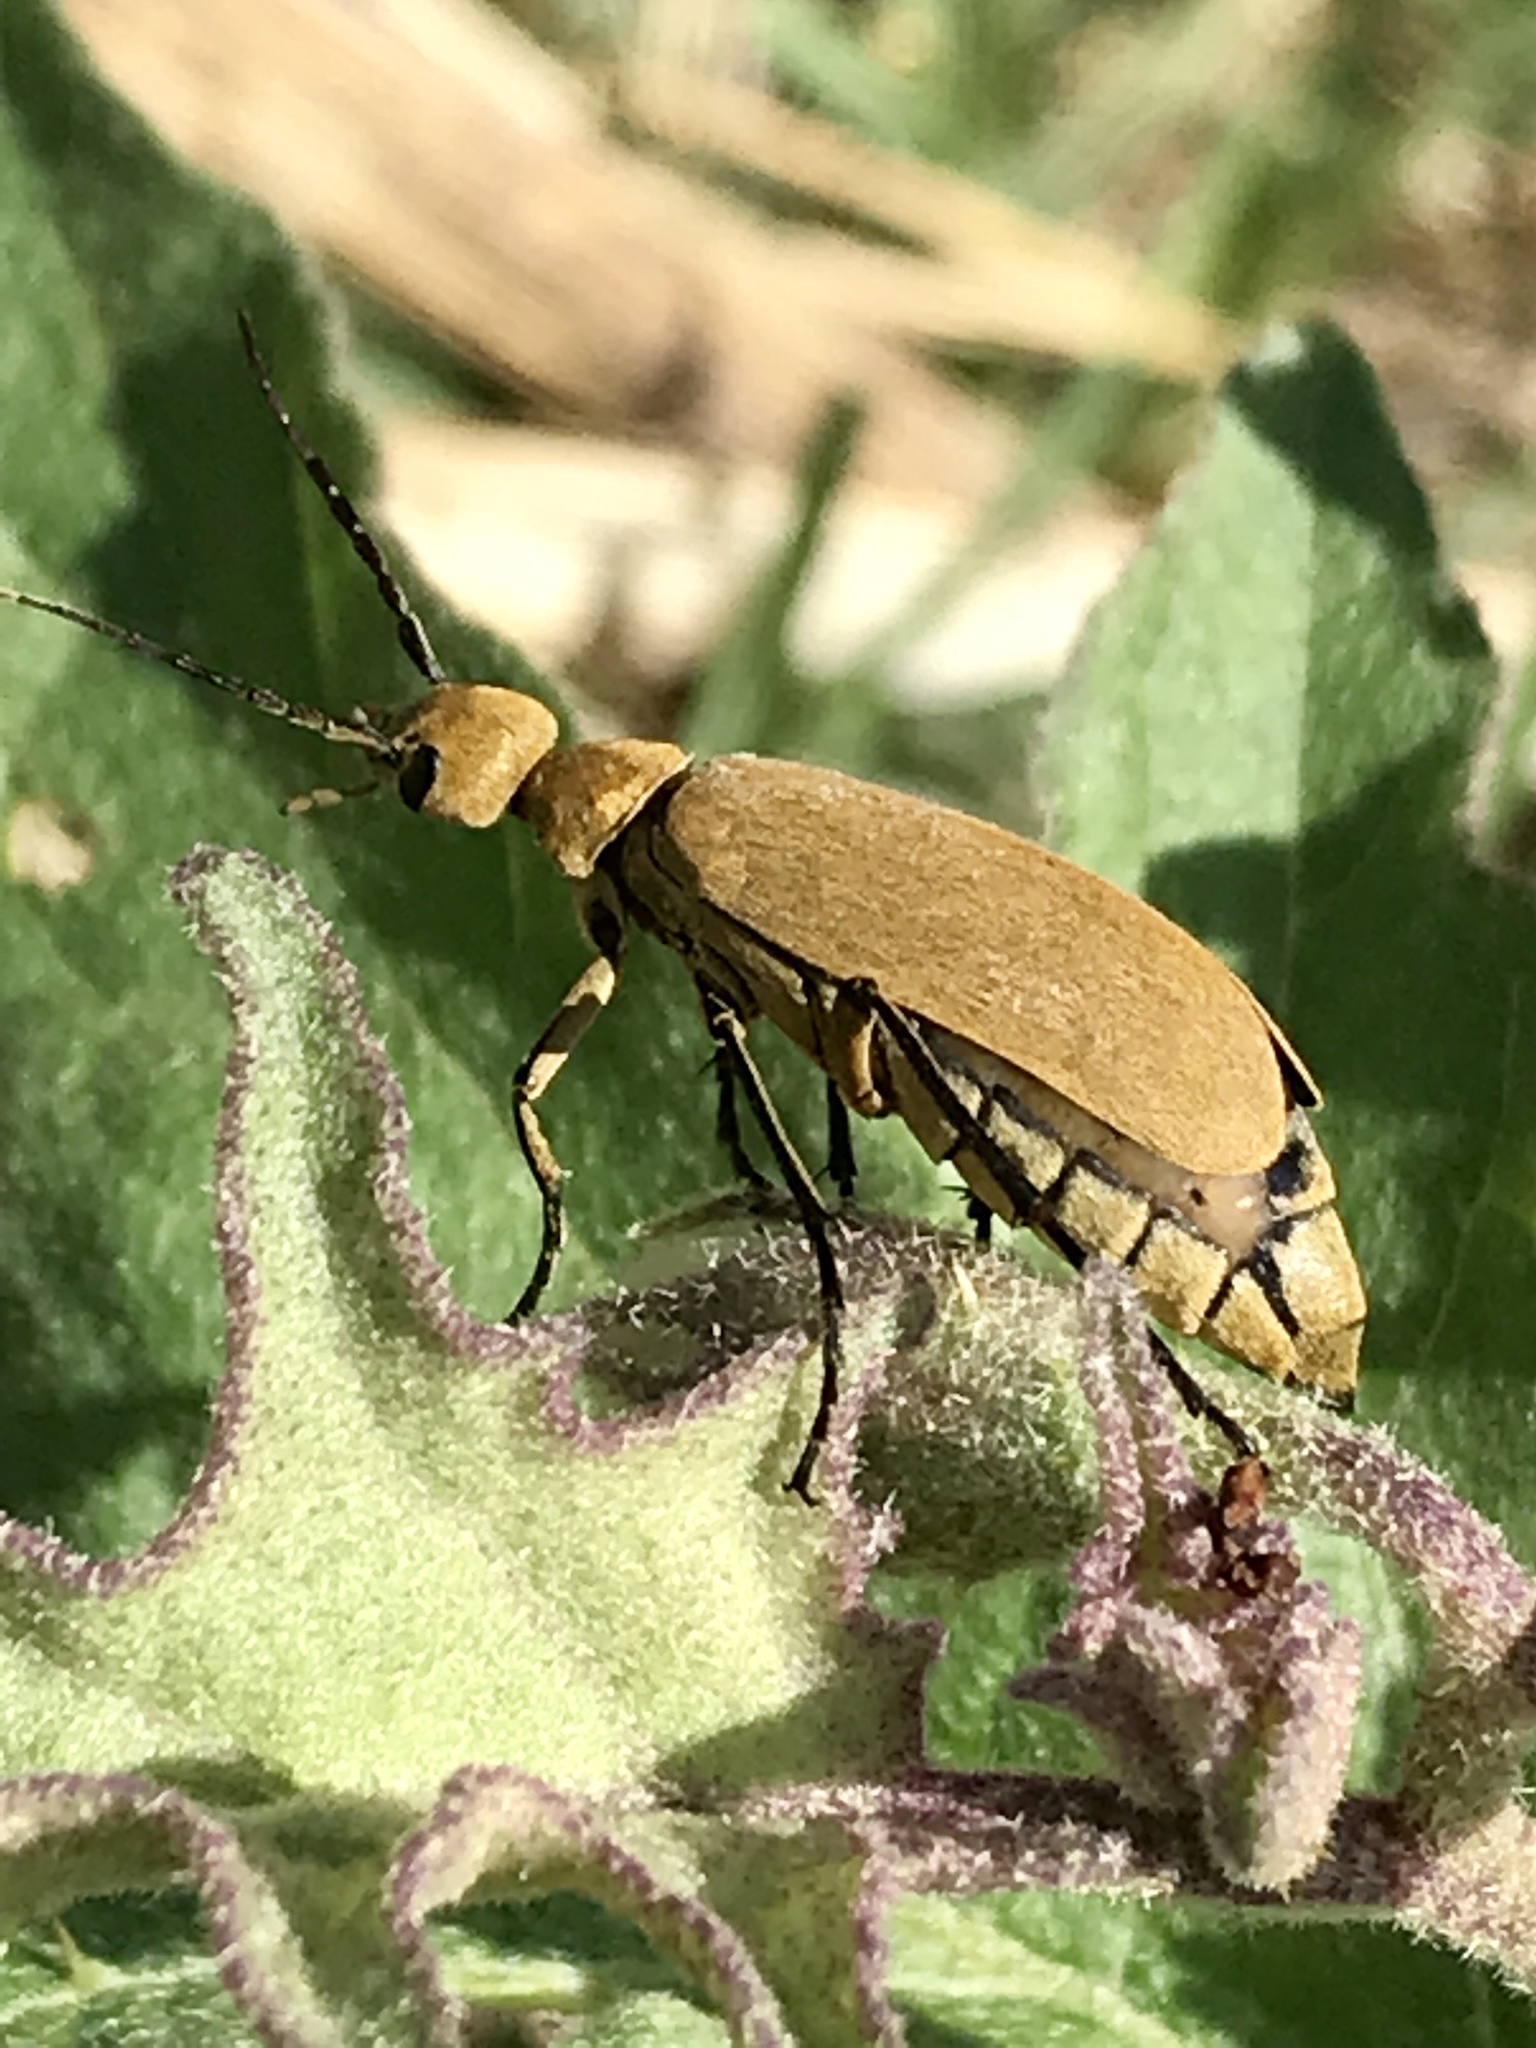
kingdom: Animalia
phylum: Arthropoda
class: Insecta
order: Coleoptera
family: Meloidae
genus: Epicauta
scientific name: Epicauta immaculata
